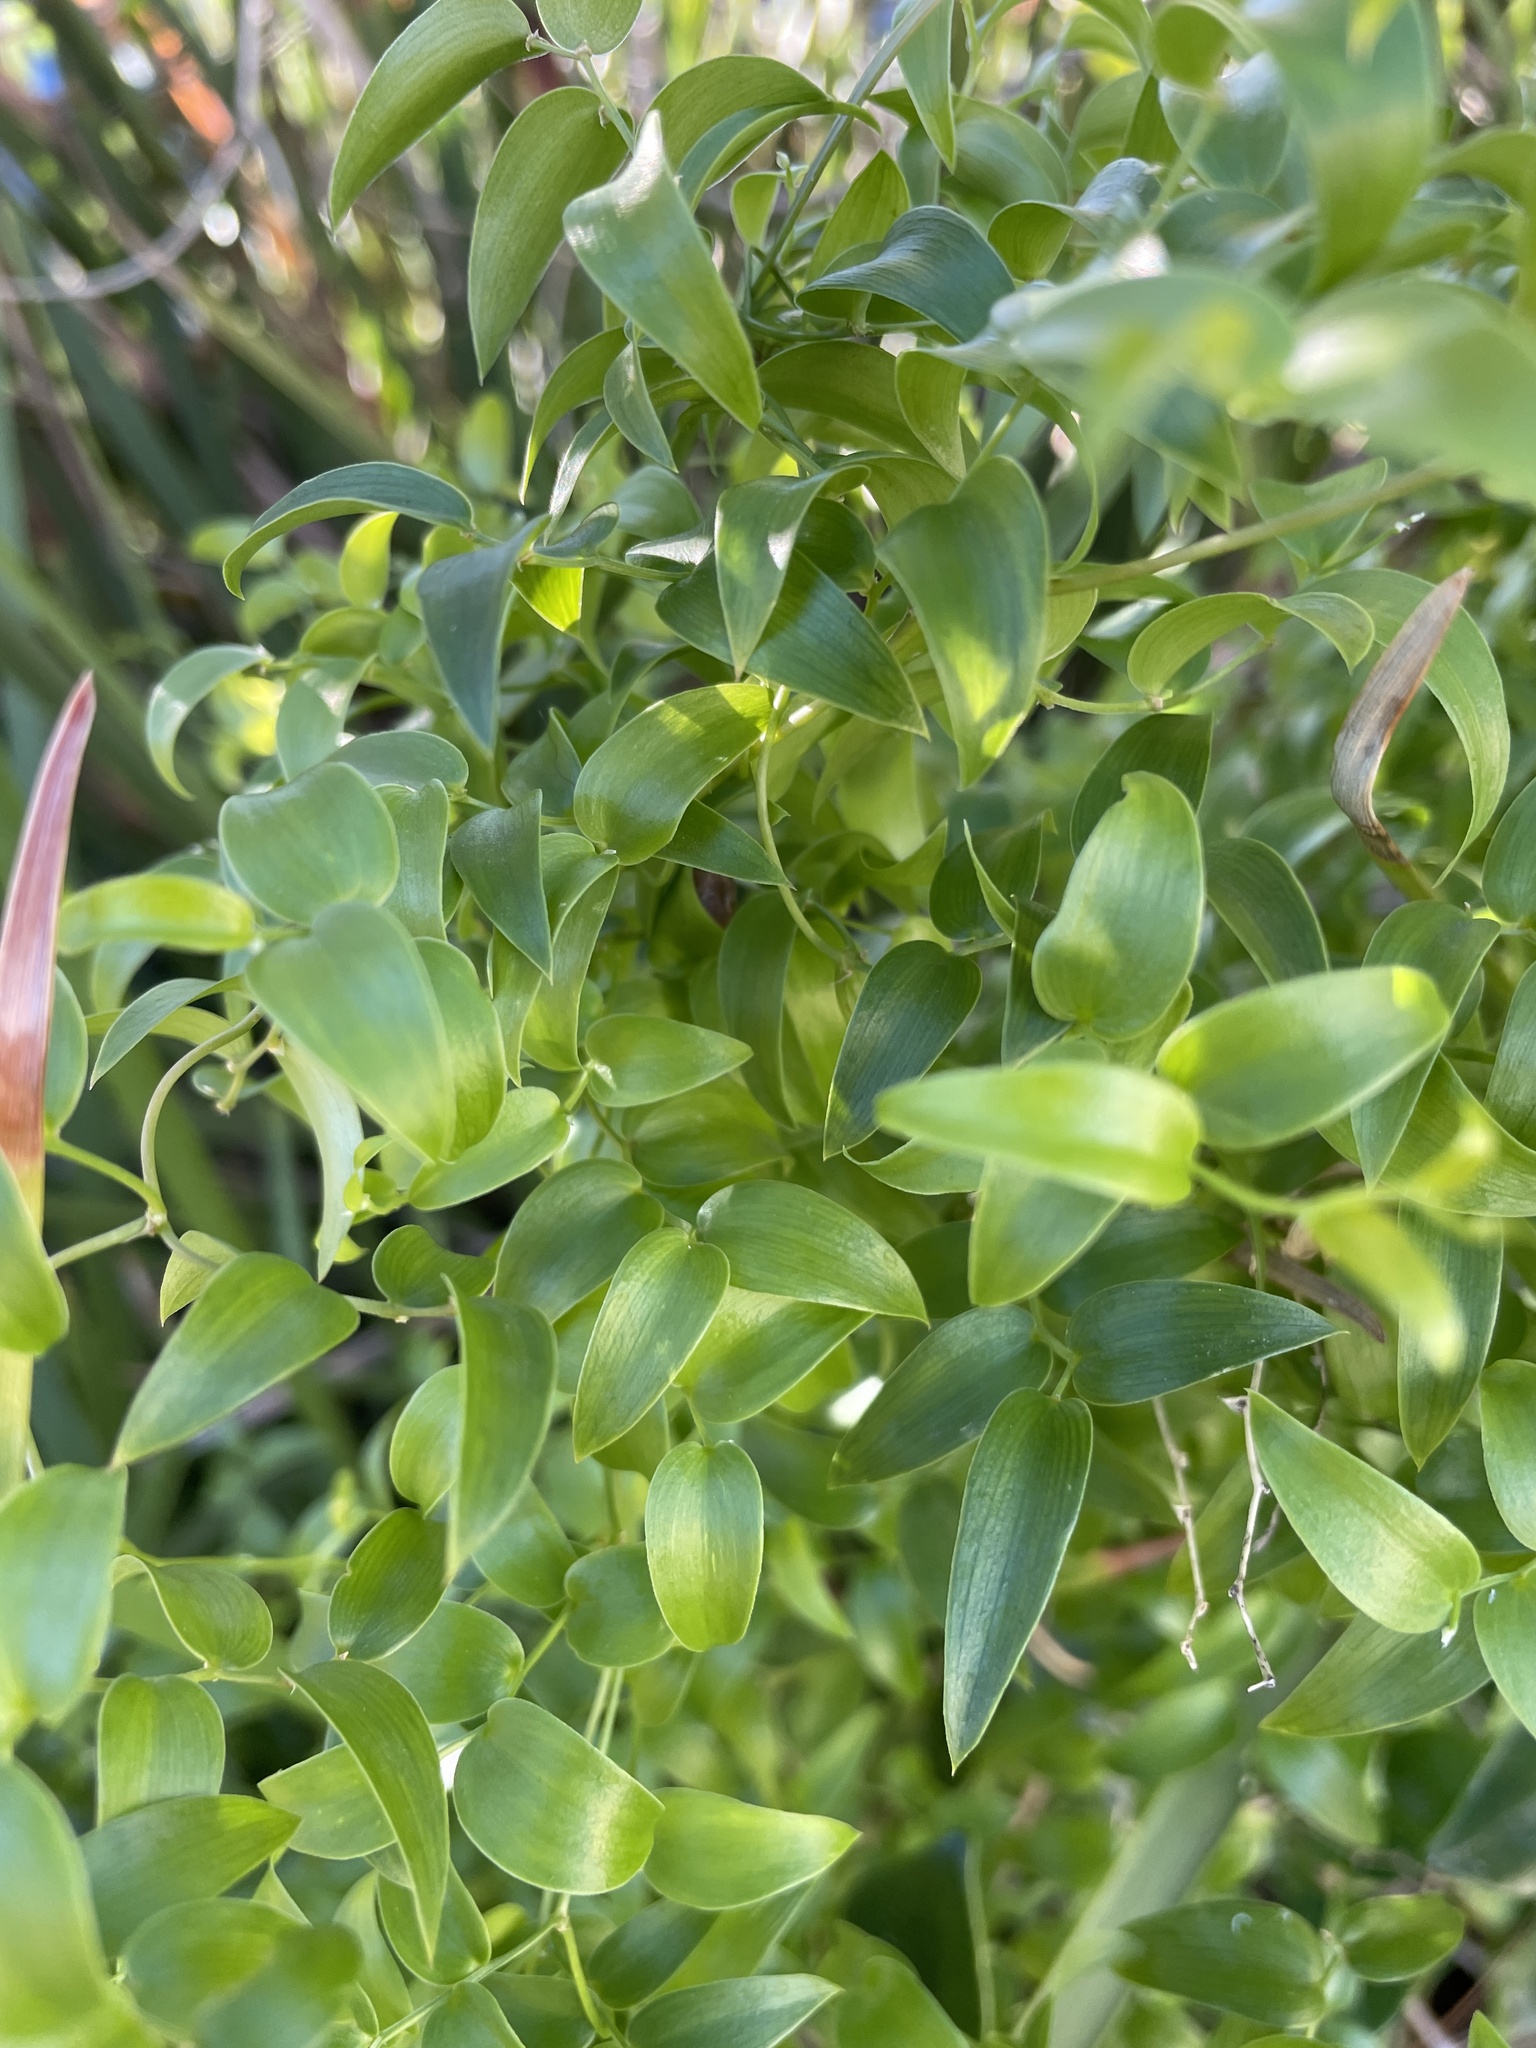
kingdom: Plantae
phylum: Tracheophyta
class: Liliopsida
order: Asparagales
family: Asparagaceae
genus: Asparagus
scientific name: Asparagus asparagoides
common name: African asparagus fern
